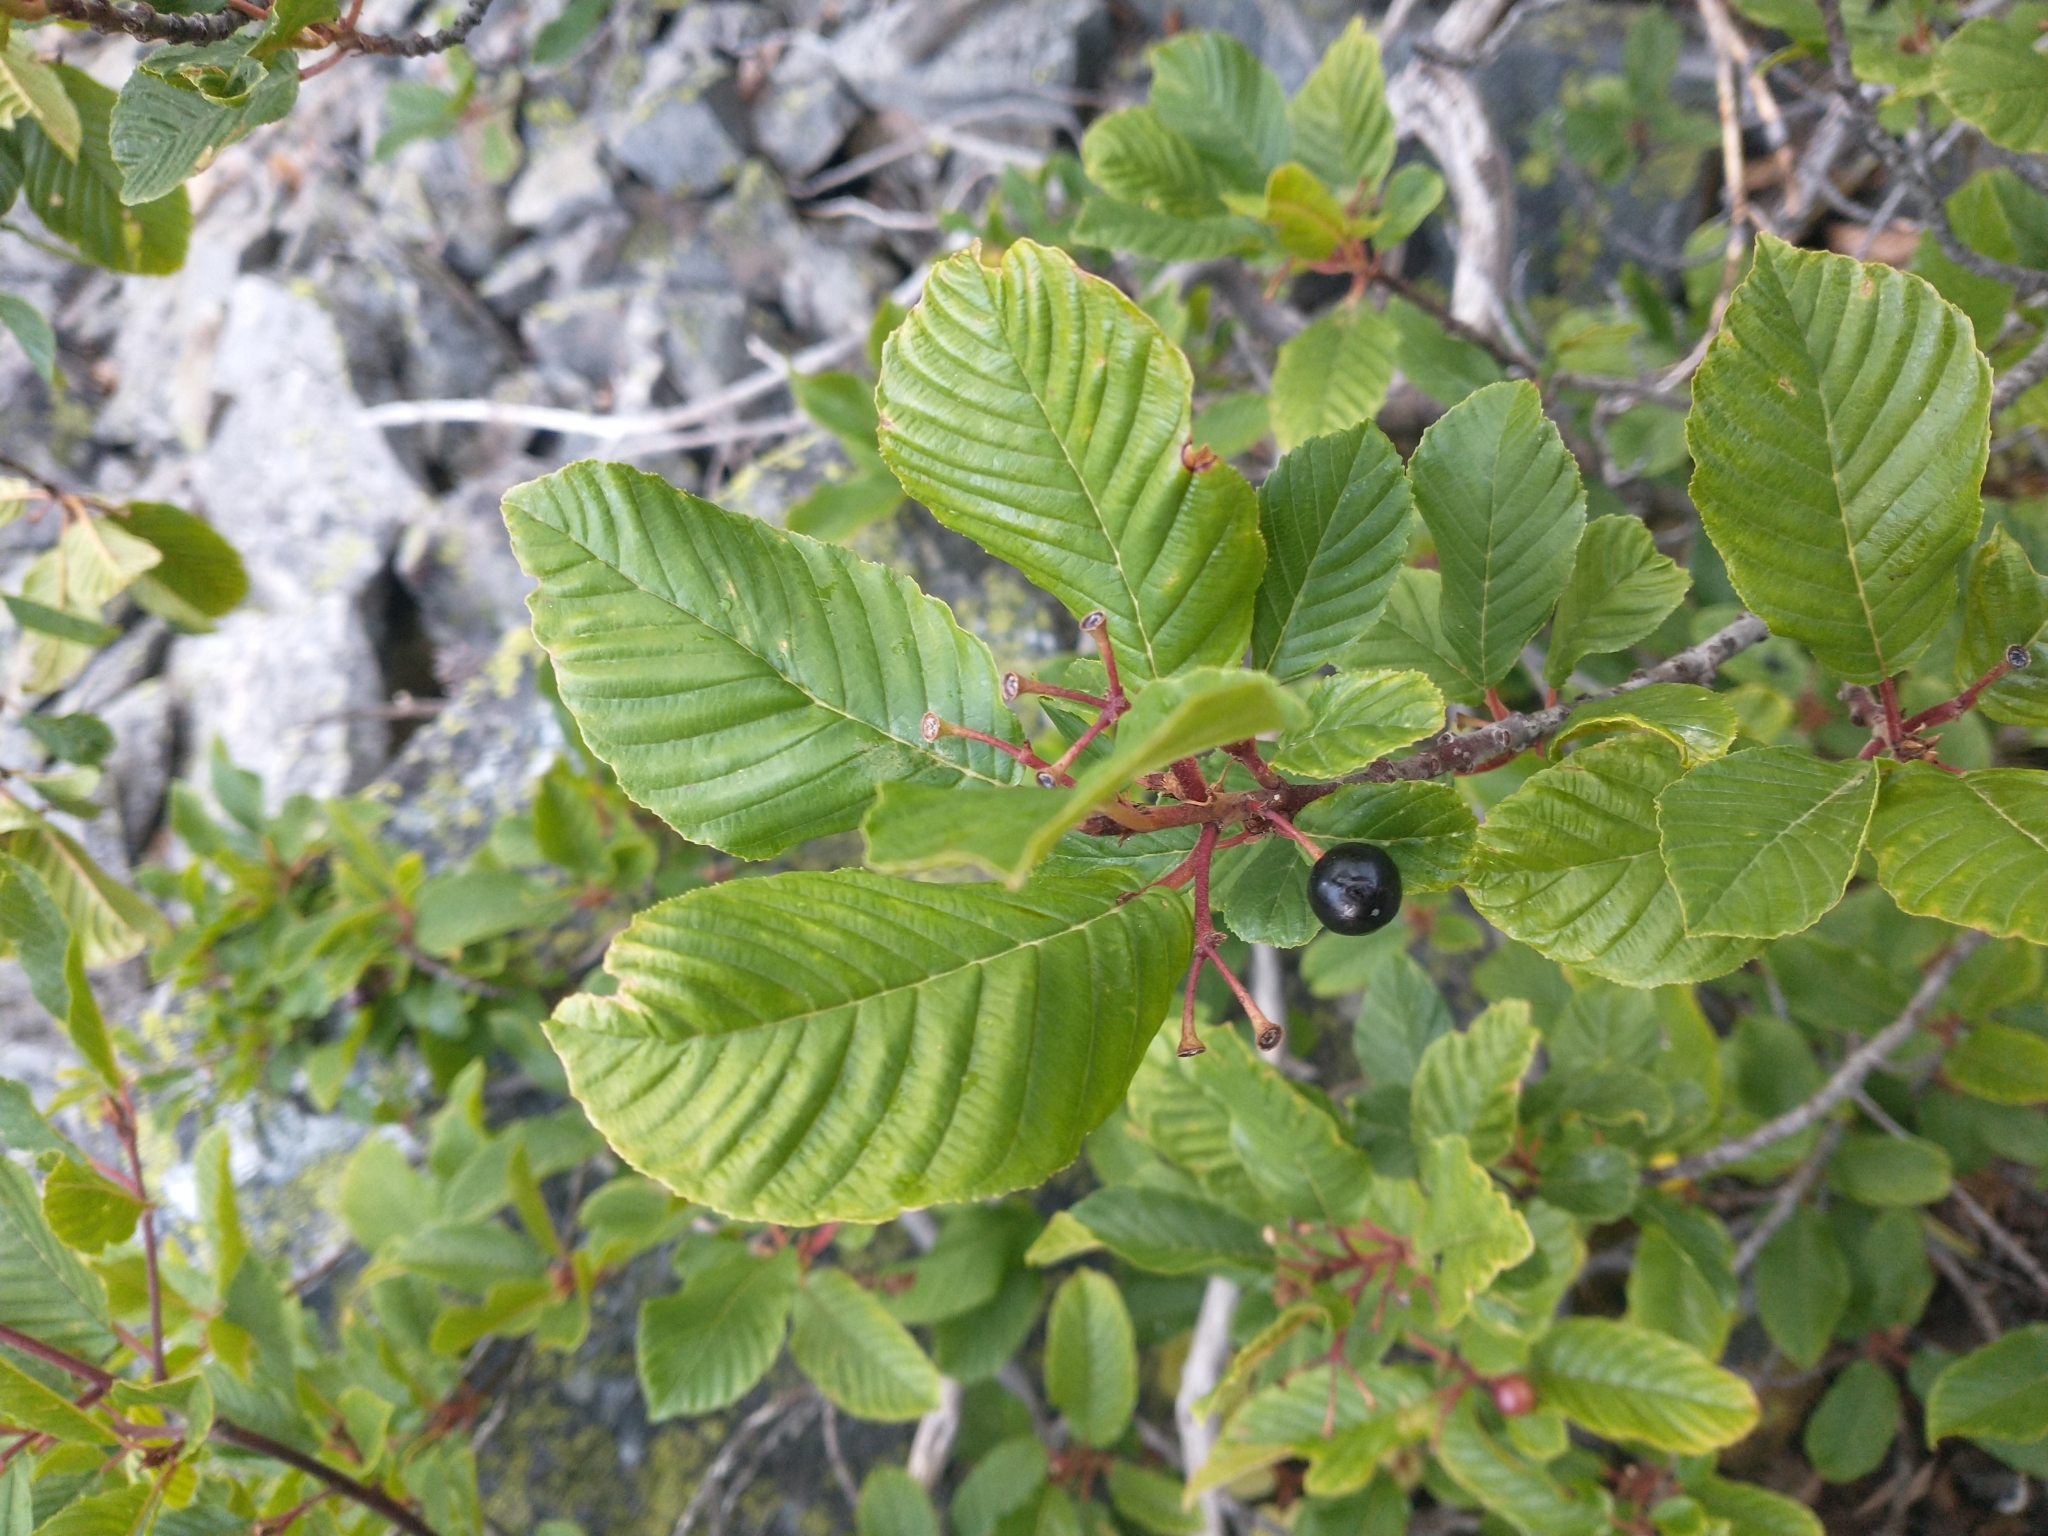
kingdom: Plantae
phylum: Tracheophyta
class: Magnoliopsida
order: Rosales
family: Rhamnaceae
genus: Frangula
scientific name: Frangula purshiana
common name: Cascara buckthorn
